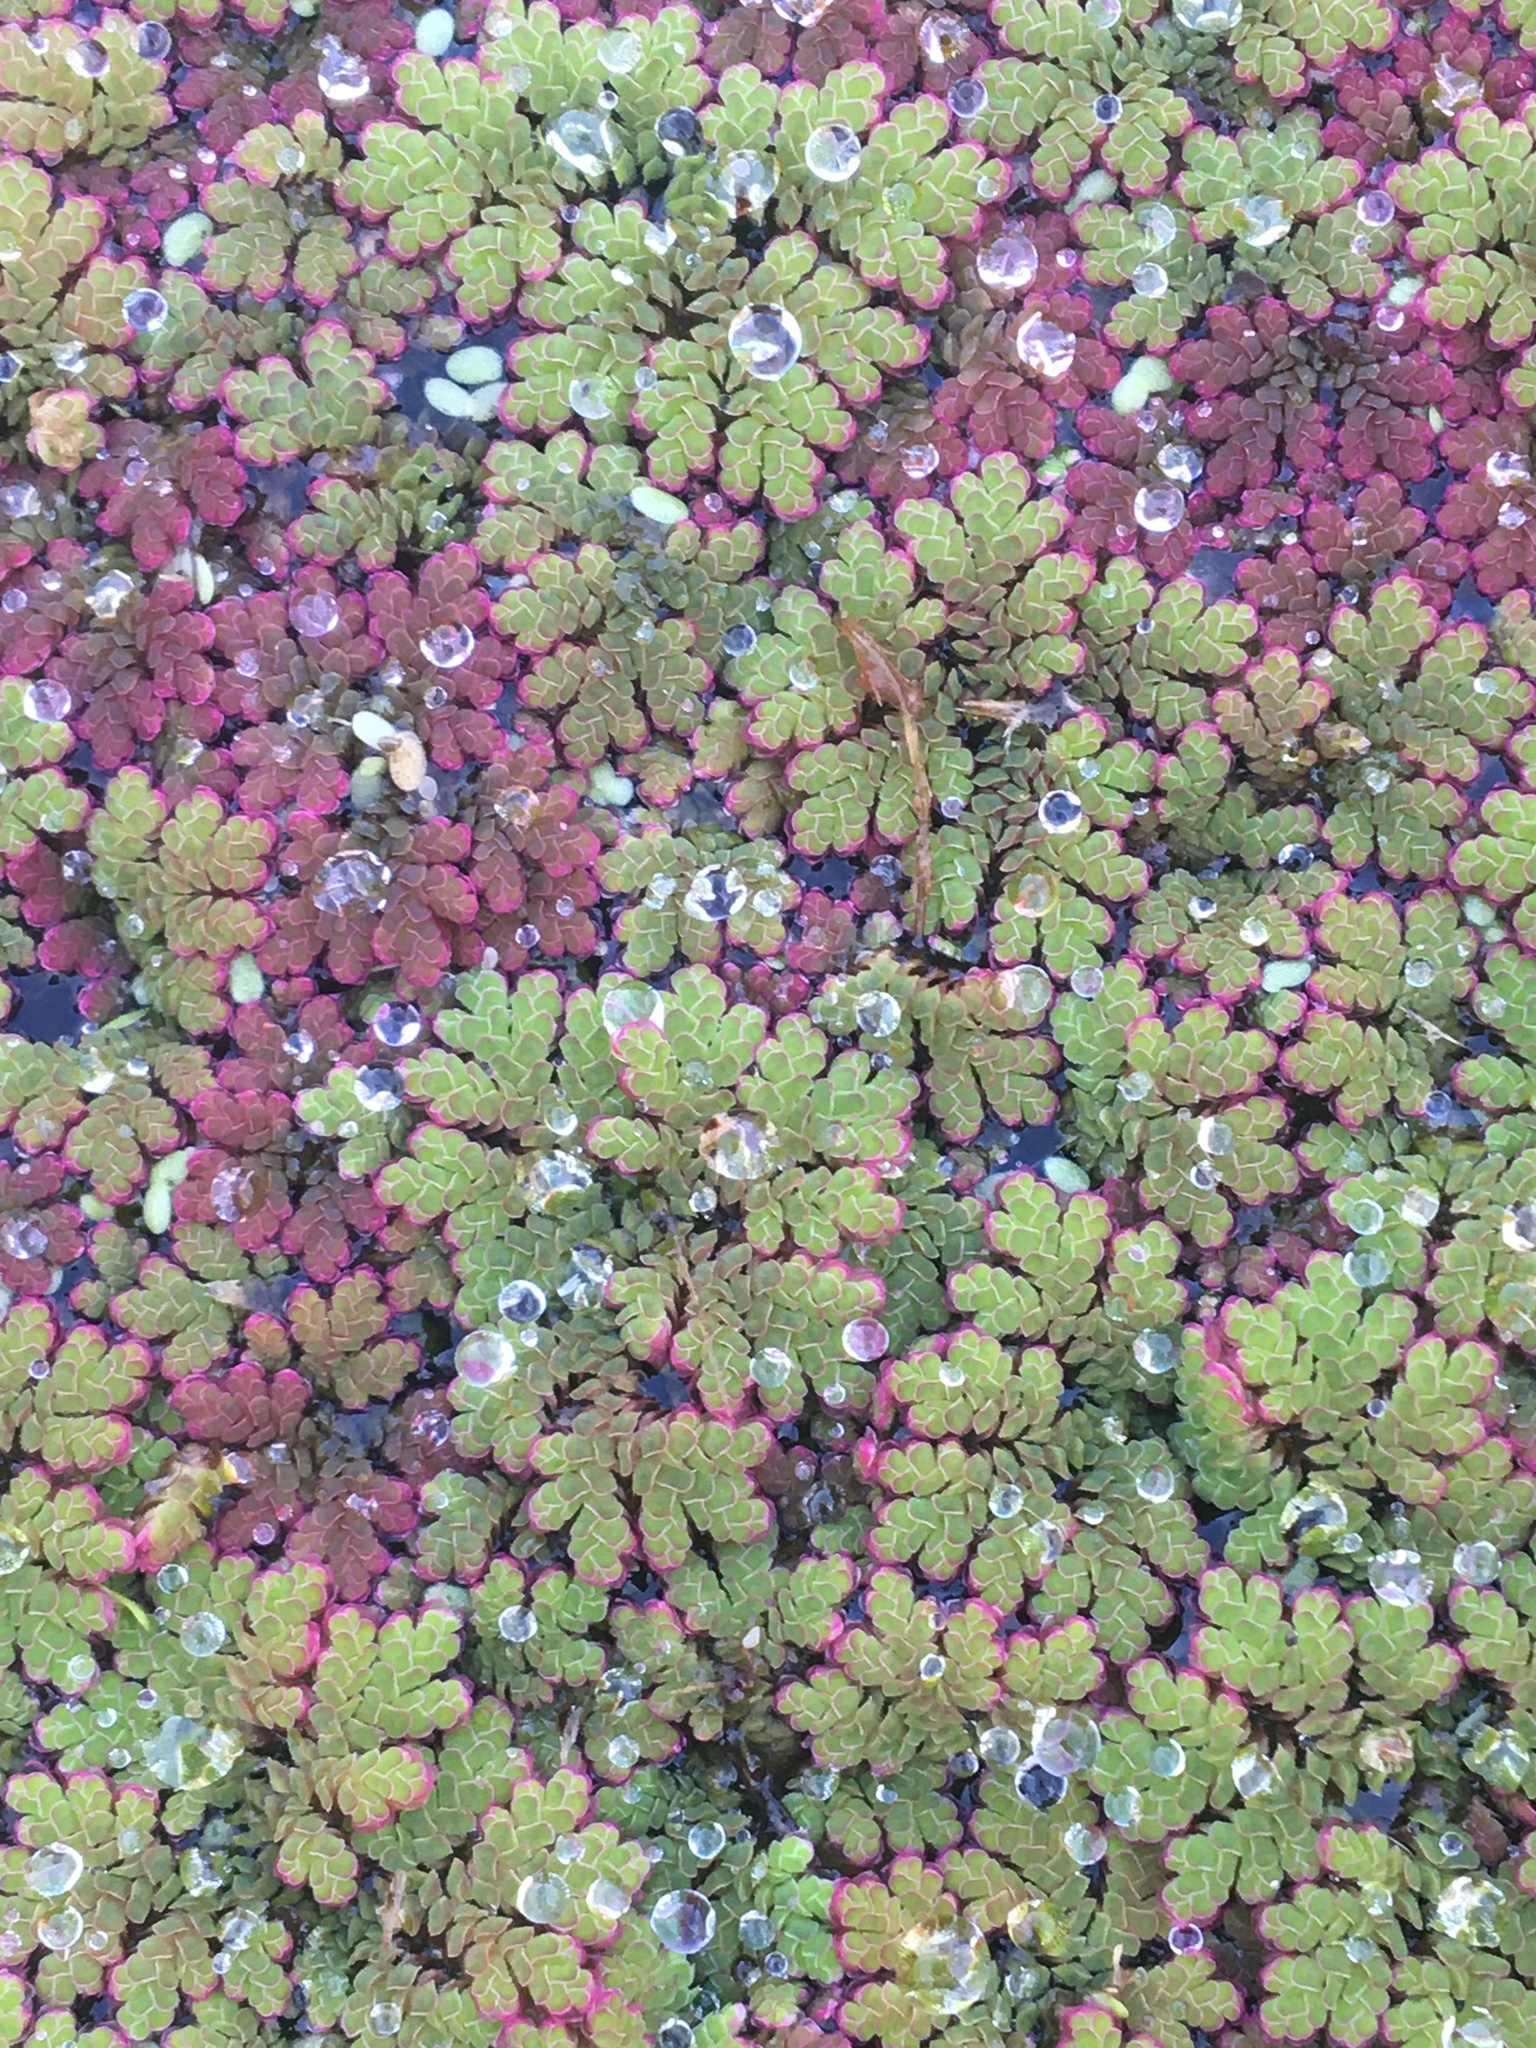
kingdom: Plantae
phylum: Tracheophyta
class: Polypodiopsida
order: Salviniales
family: Salviniaceae
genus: Azolla
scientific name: Azolla filiculoides
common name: Water fern
